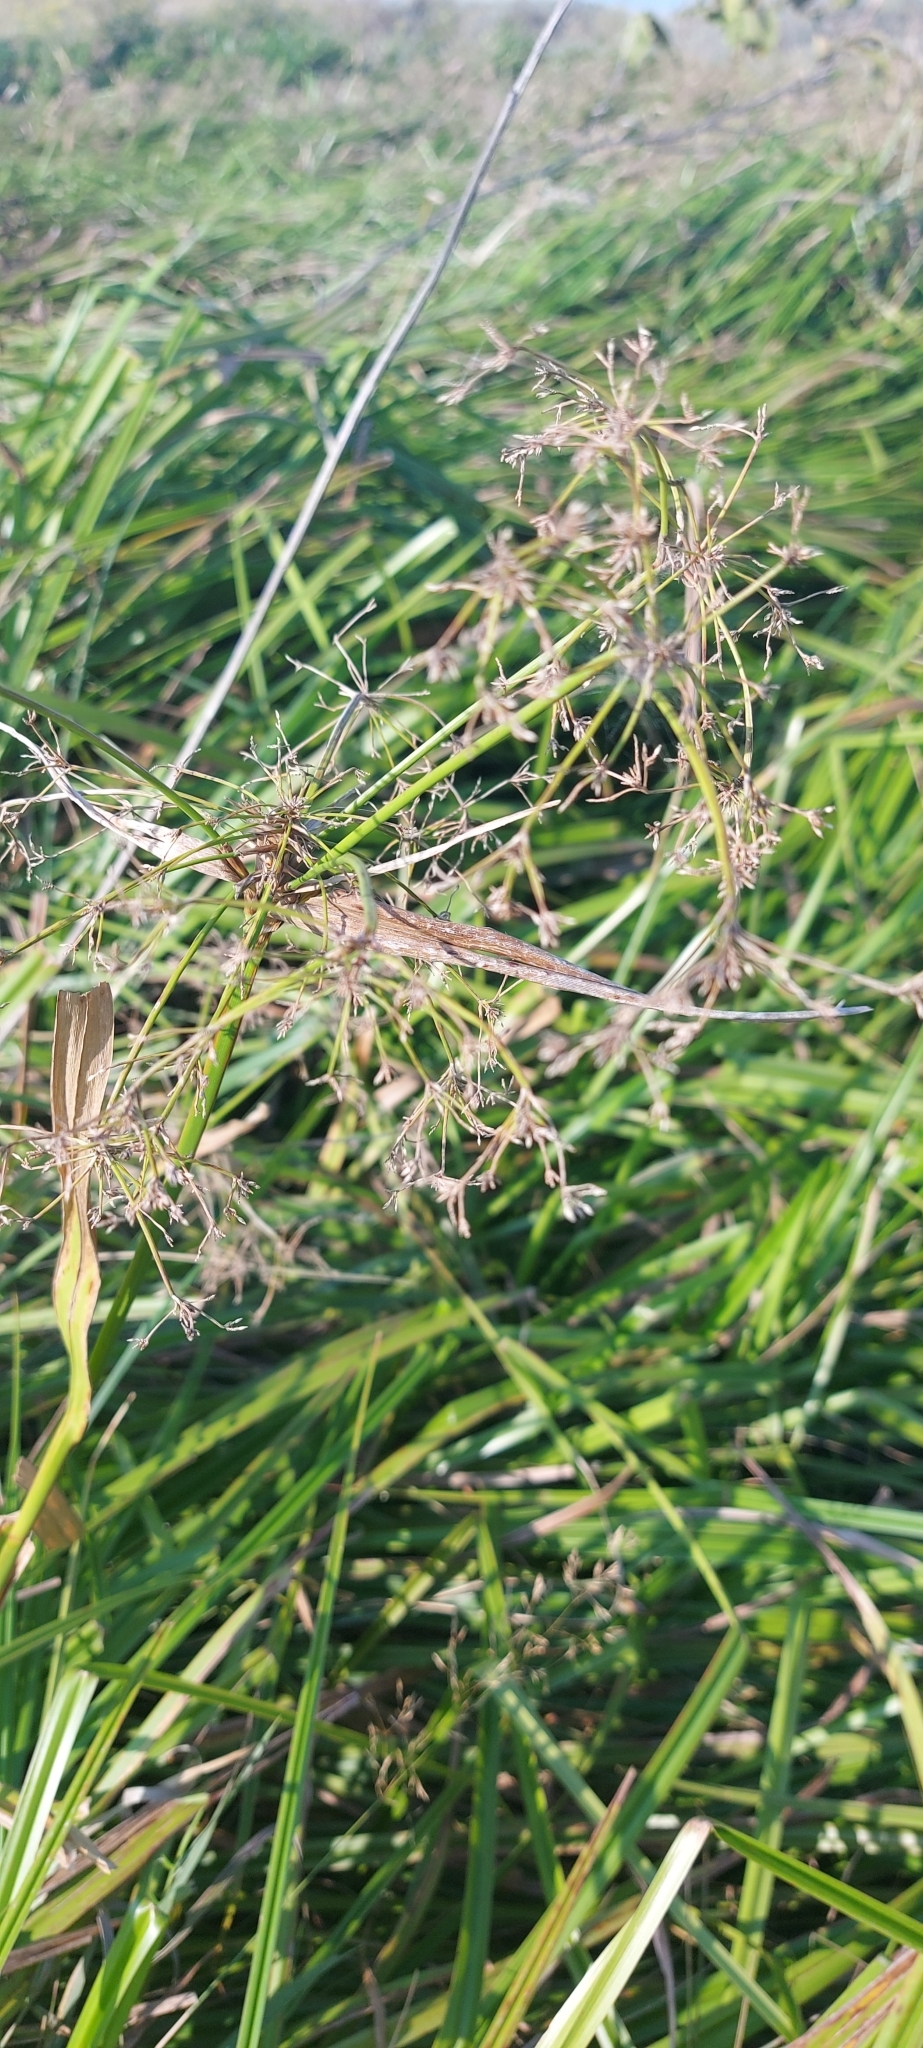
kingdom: Plantae
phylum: Tracheophyta
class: Liliopsida
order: Poales
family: Cyperaceae
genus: Scirpus
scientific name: Scirpus sylvaticus
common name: Wood club-rush
